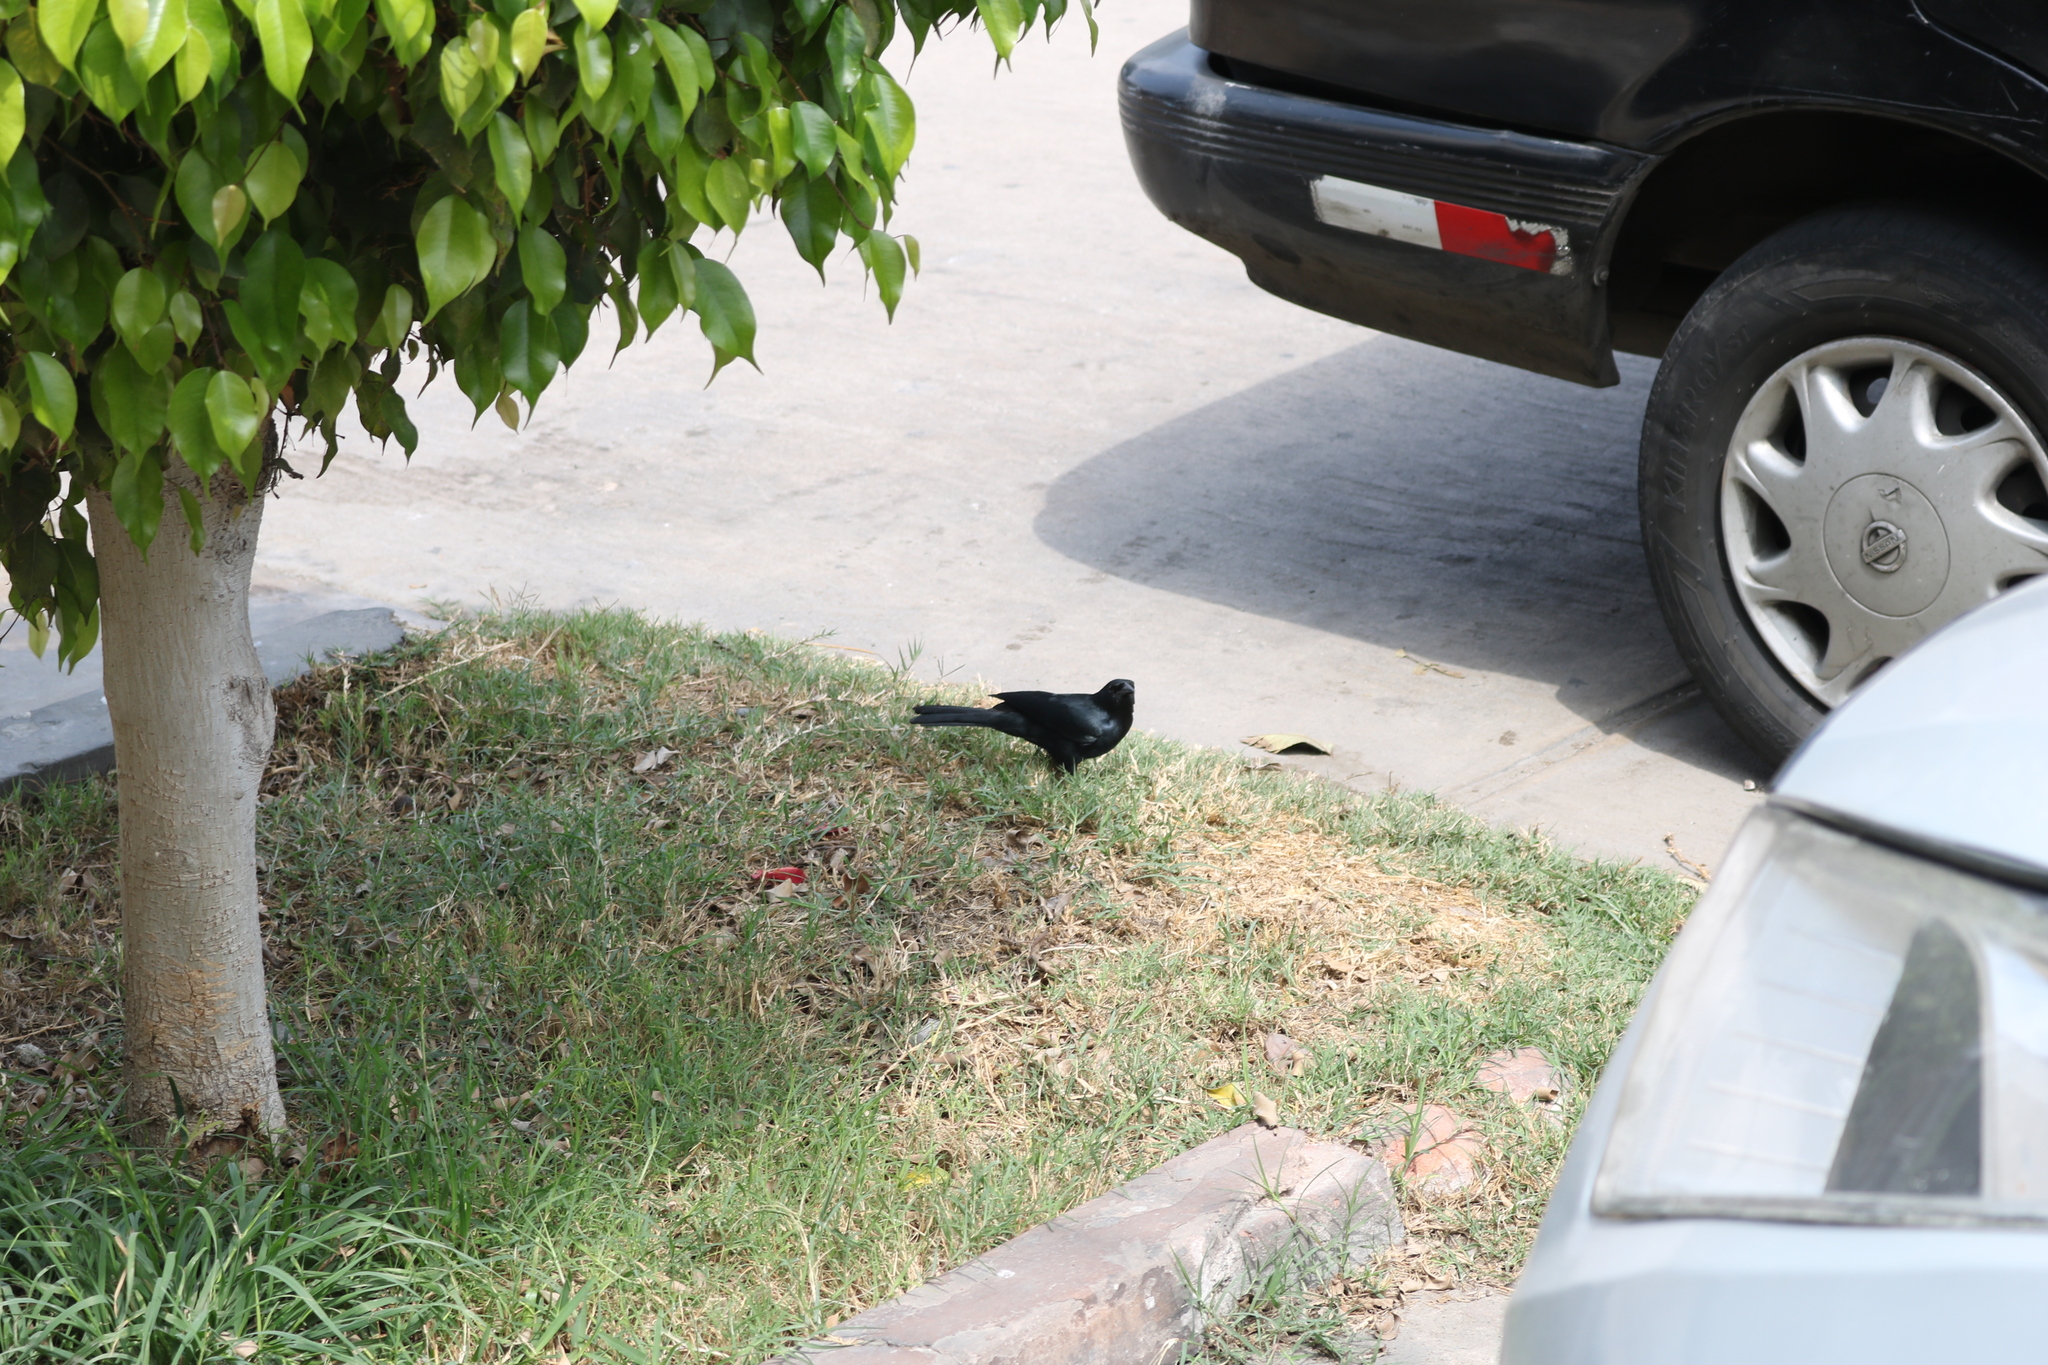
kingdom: Animalia
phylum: Chordata
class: Aves
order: Passeriformes
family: Icteridae
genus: Dives
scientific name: Dives warczewiczi
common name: Scrub blackbird
